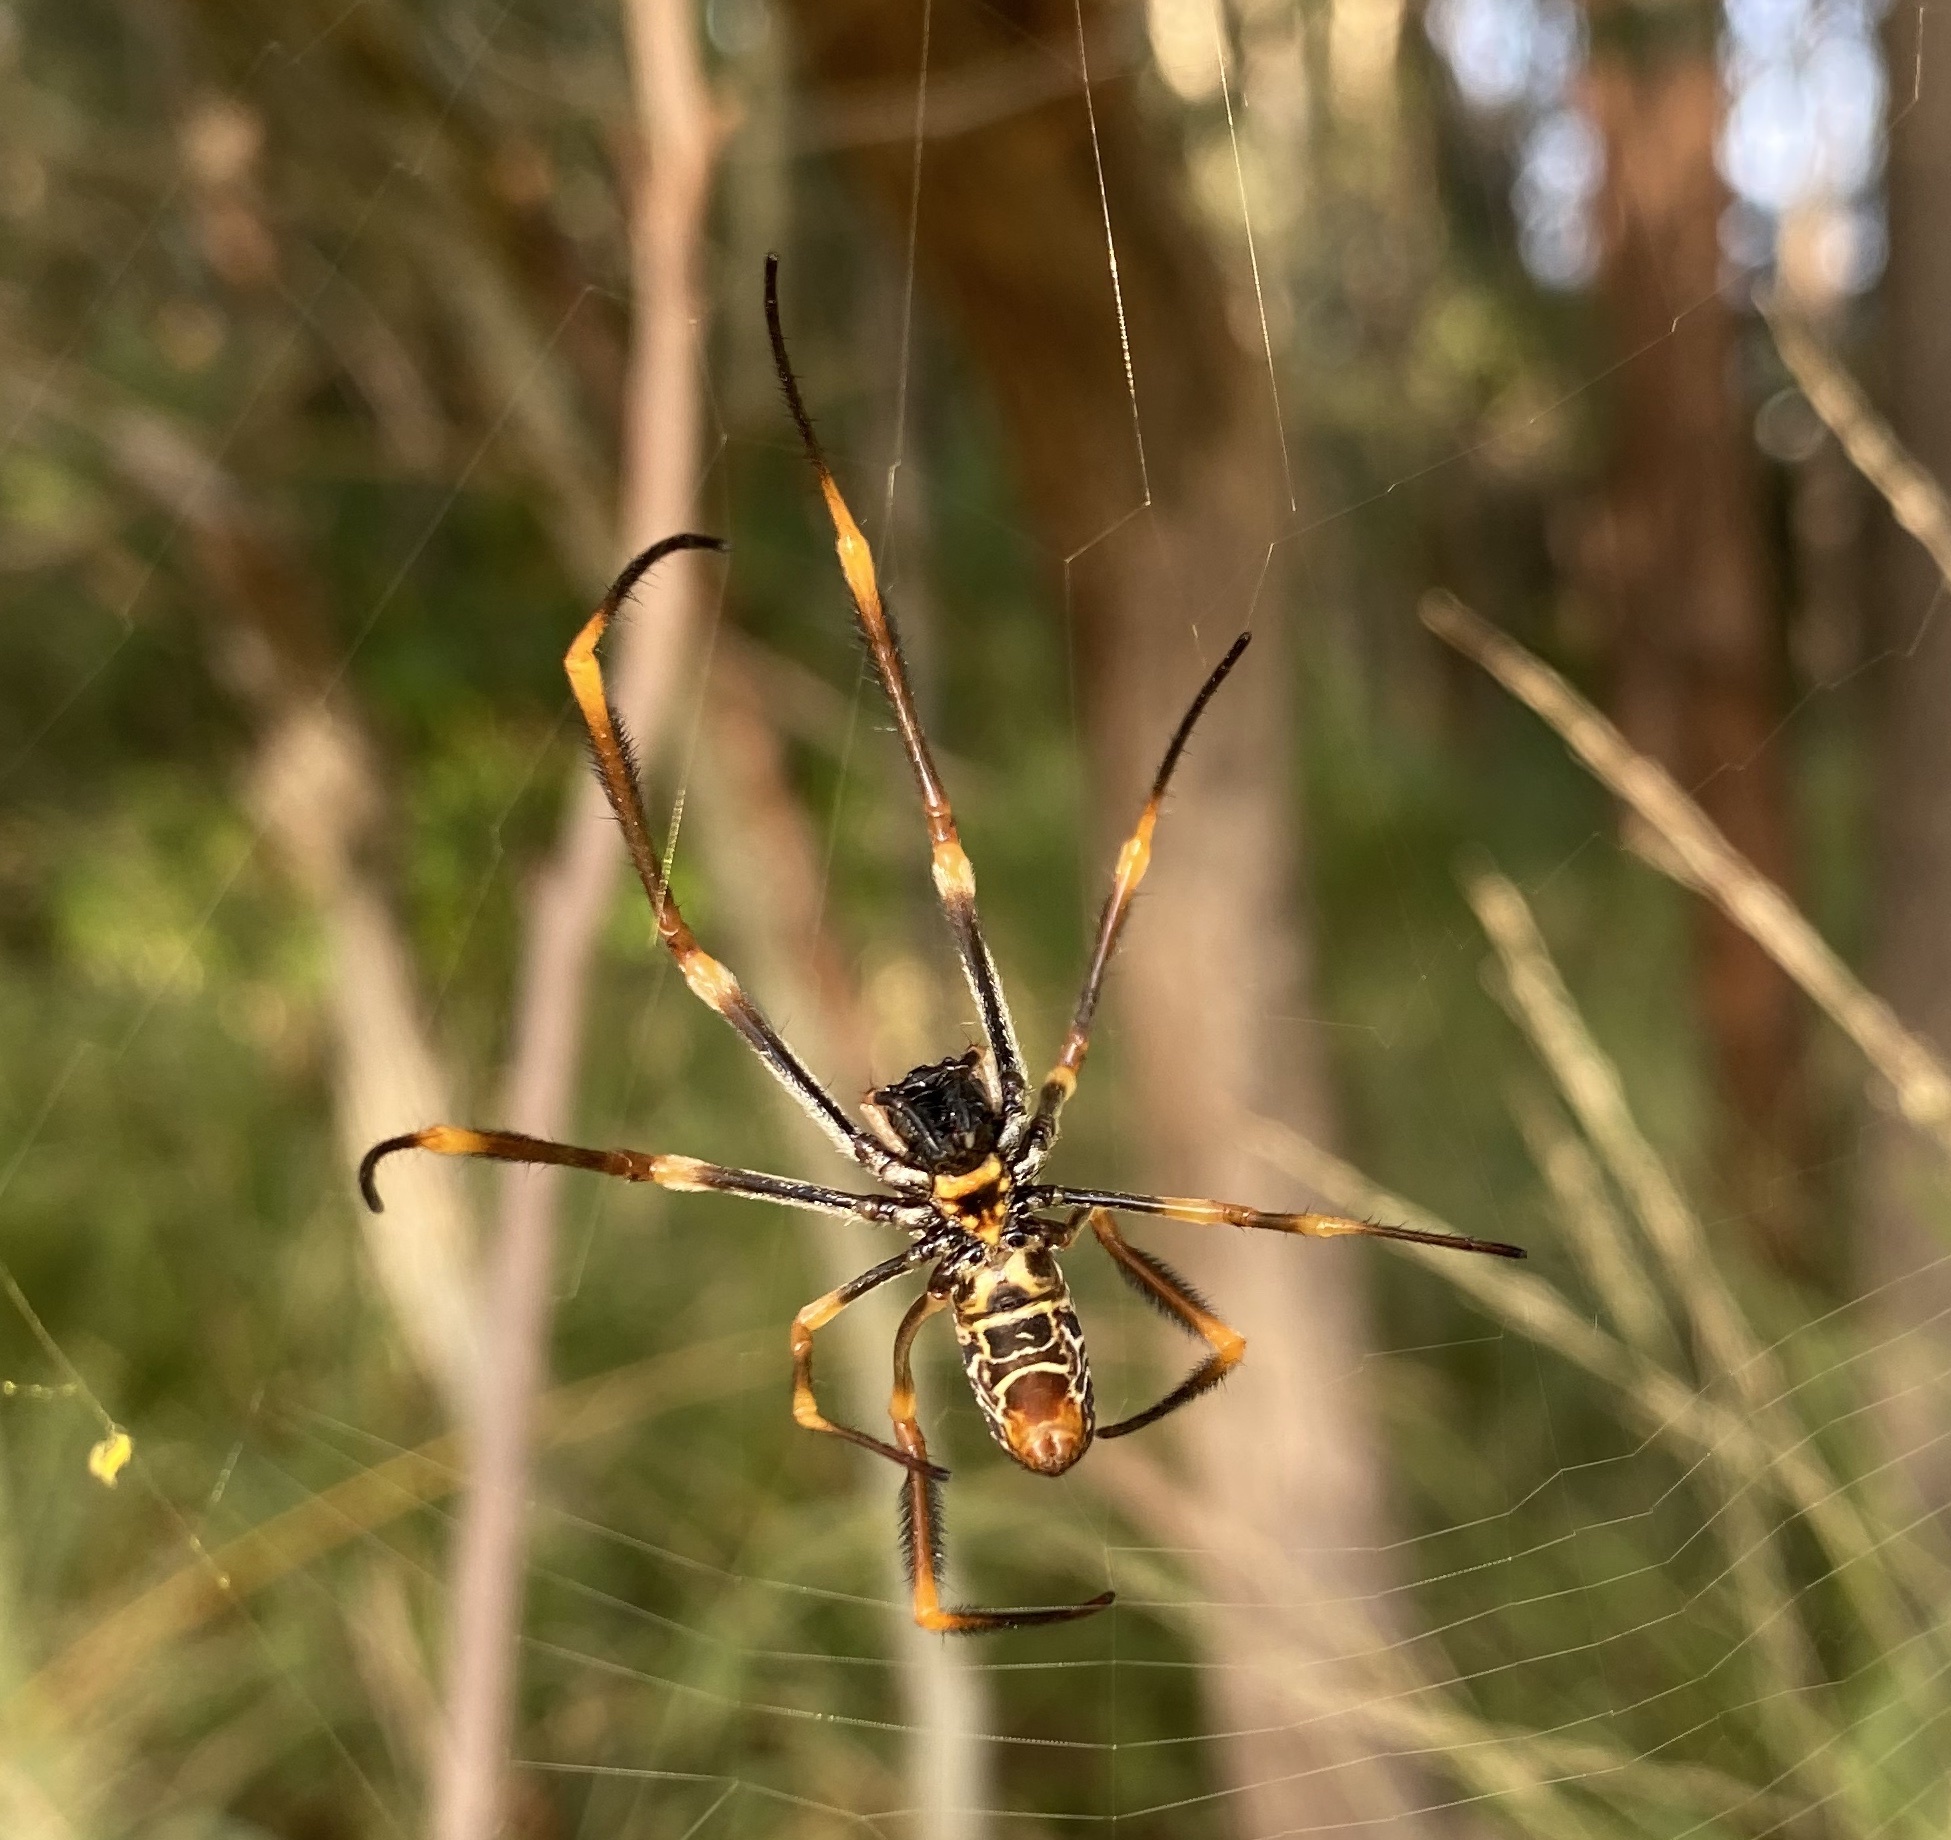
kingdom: Animalia
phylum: Arthropoda
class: Arachnida
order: Araneae
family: Araneidae
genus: Trichonephila
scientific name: Trichonephila plumipes
